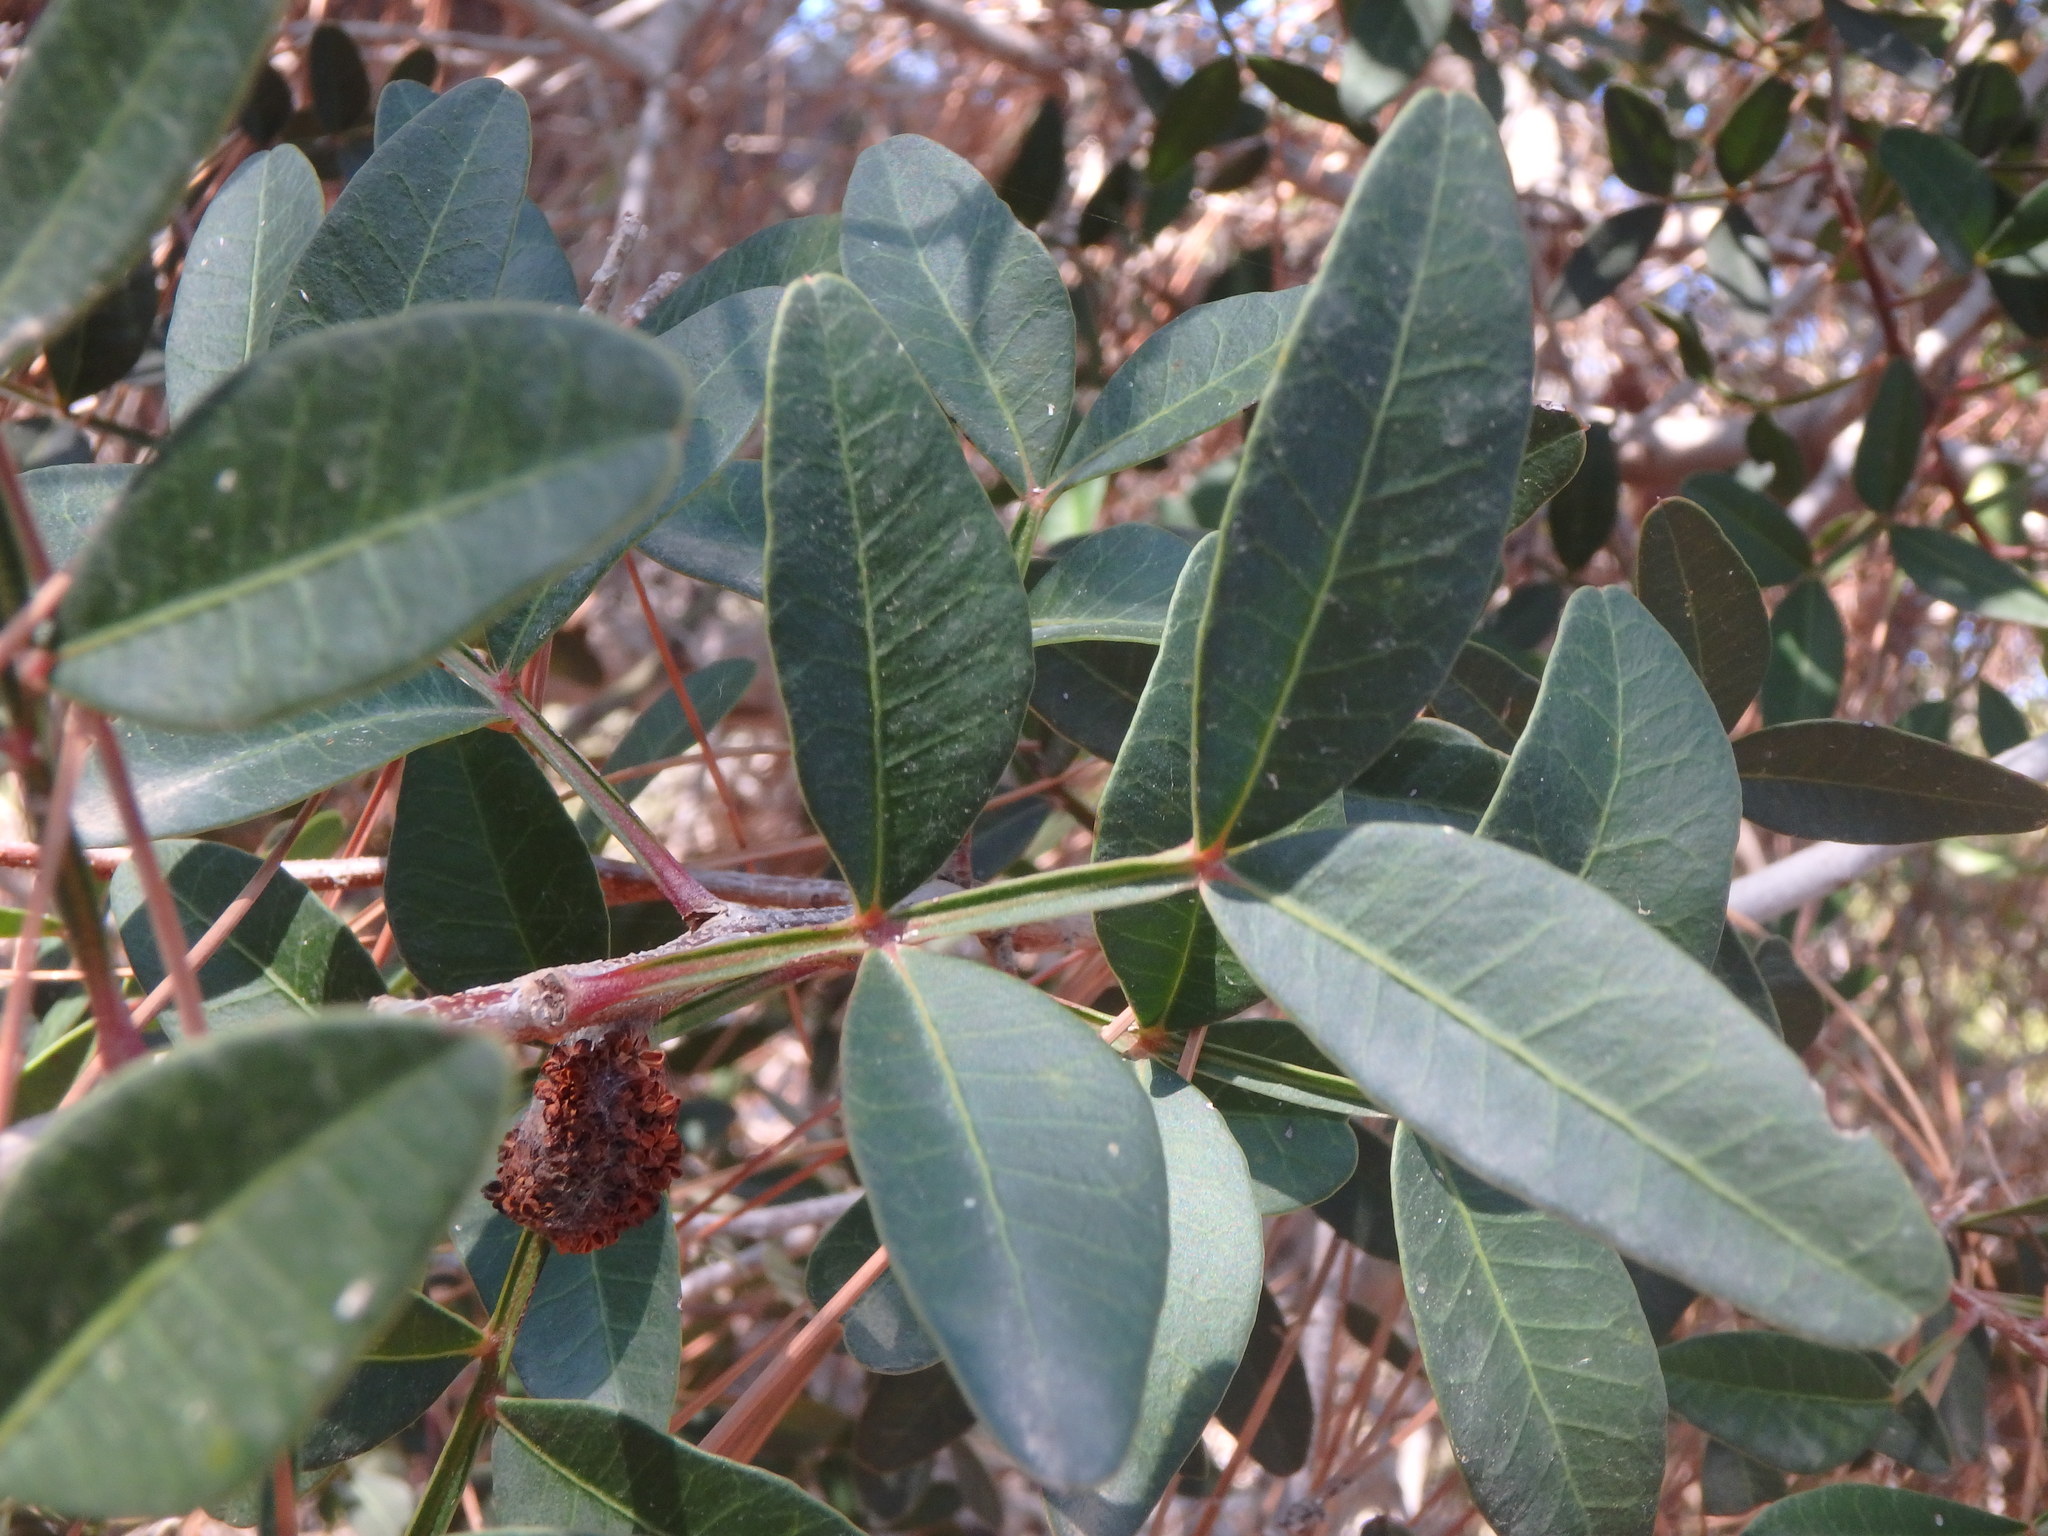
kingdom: Plantae
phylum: Tracheophyta
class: Magnoliopsida
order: Sapindales
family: Anacardiaceae
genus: Pistacia
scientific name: Pistacia lentiscus
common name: Lentisk
